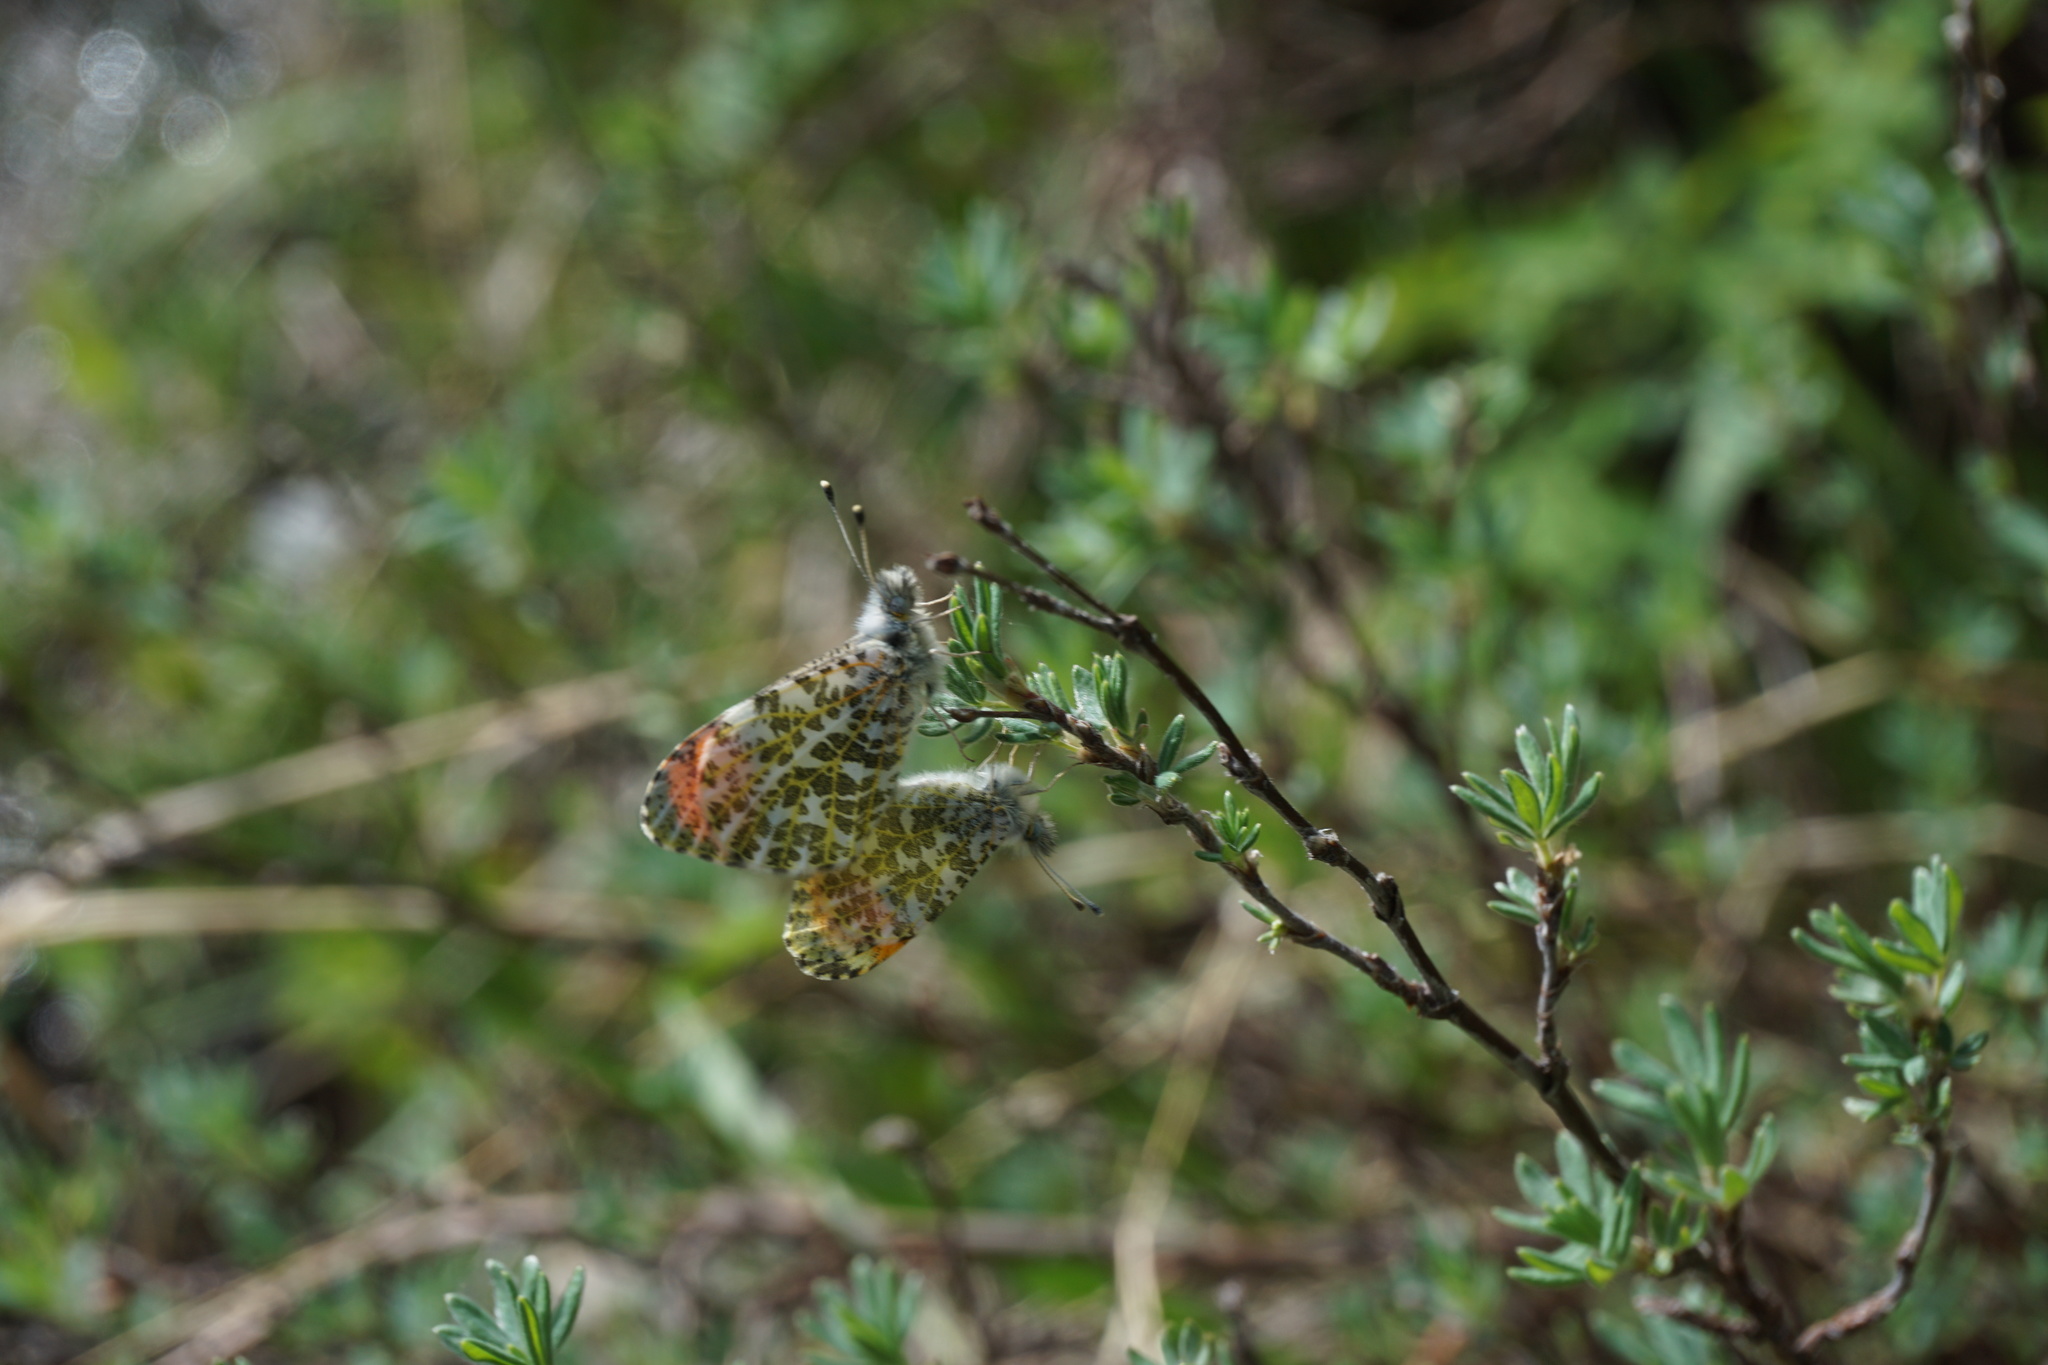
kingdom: Animalia
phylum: Arthropoda
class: Insecta
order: Lepidoptera
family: Pieridae
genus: Anthocharis
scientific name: Anthocharis julia
